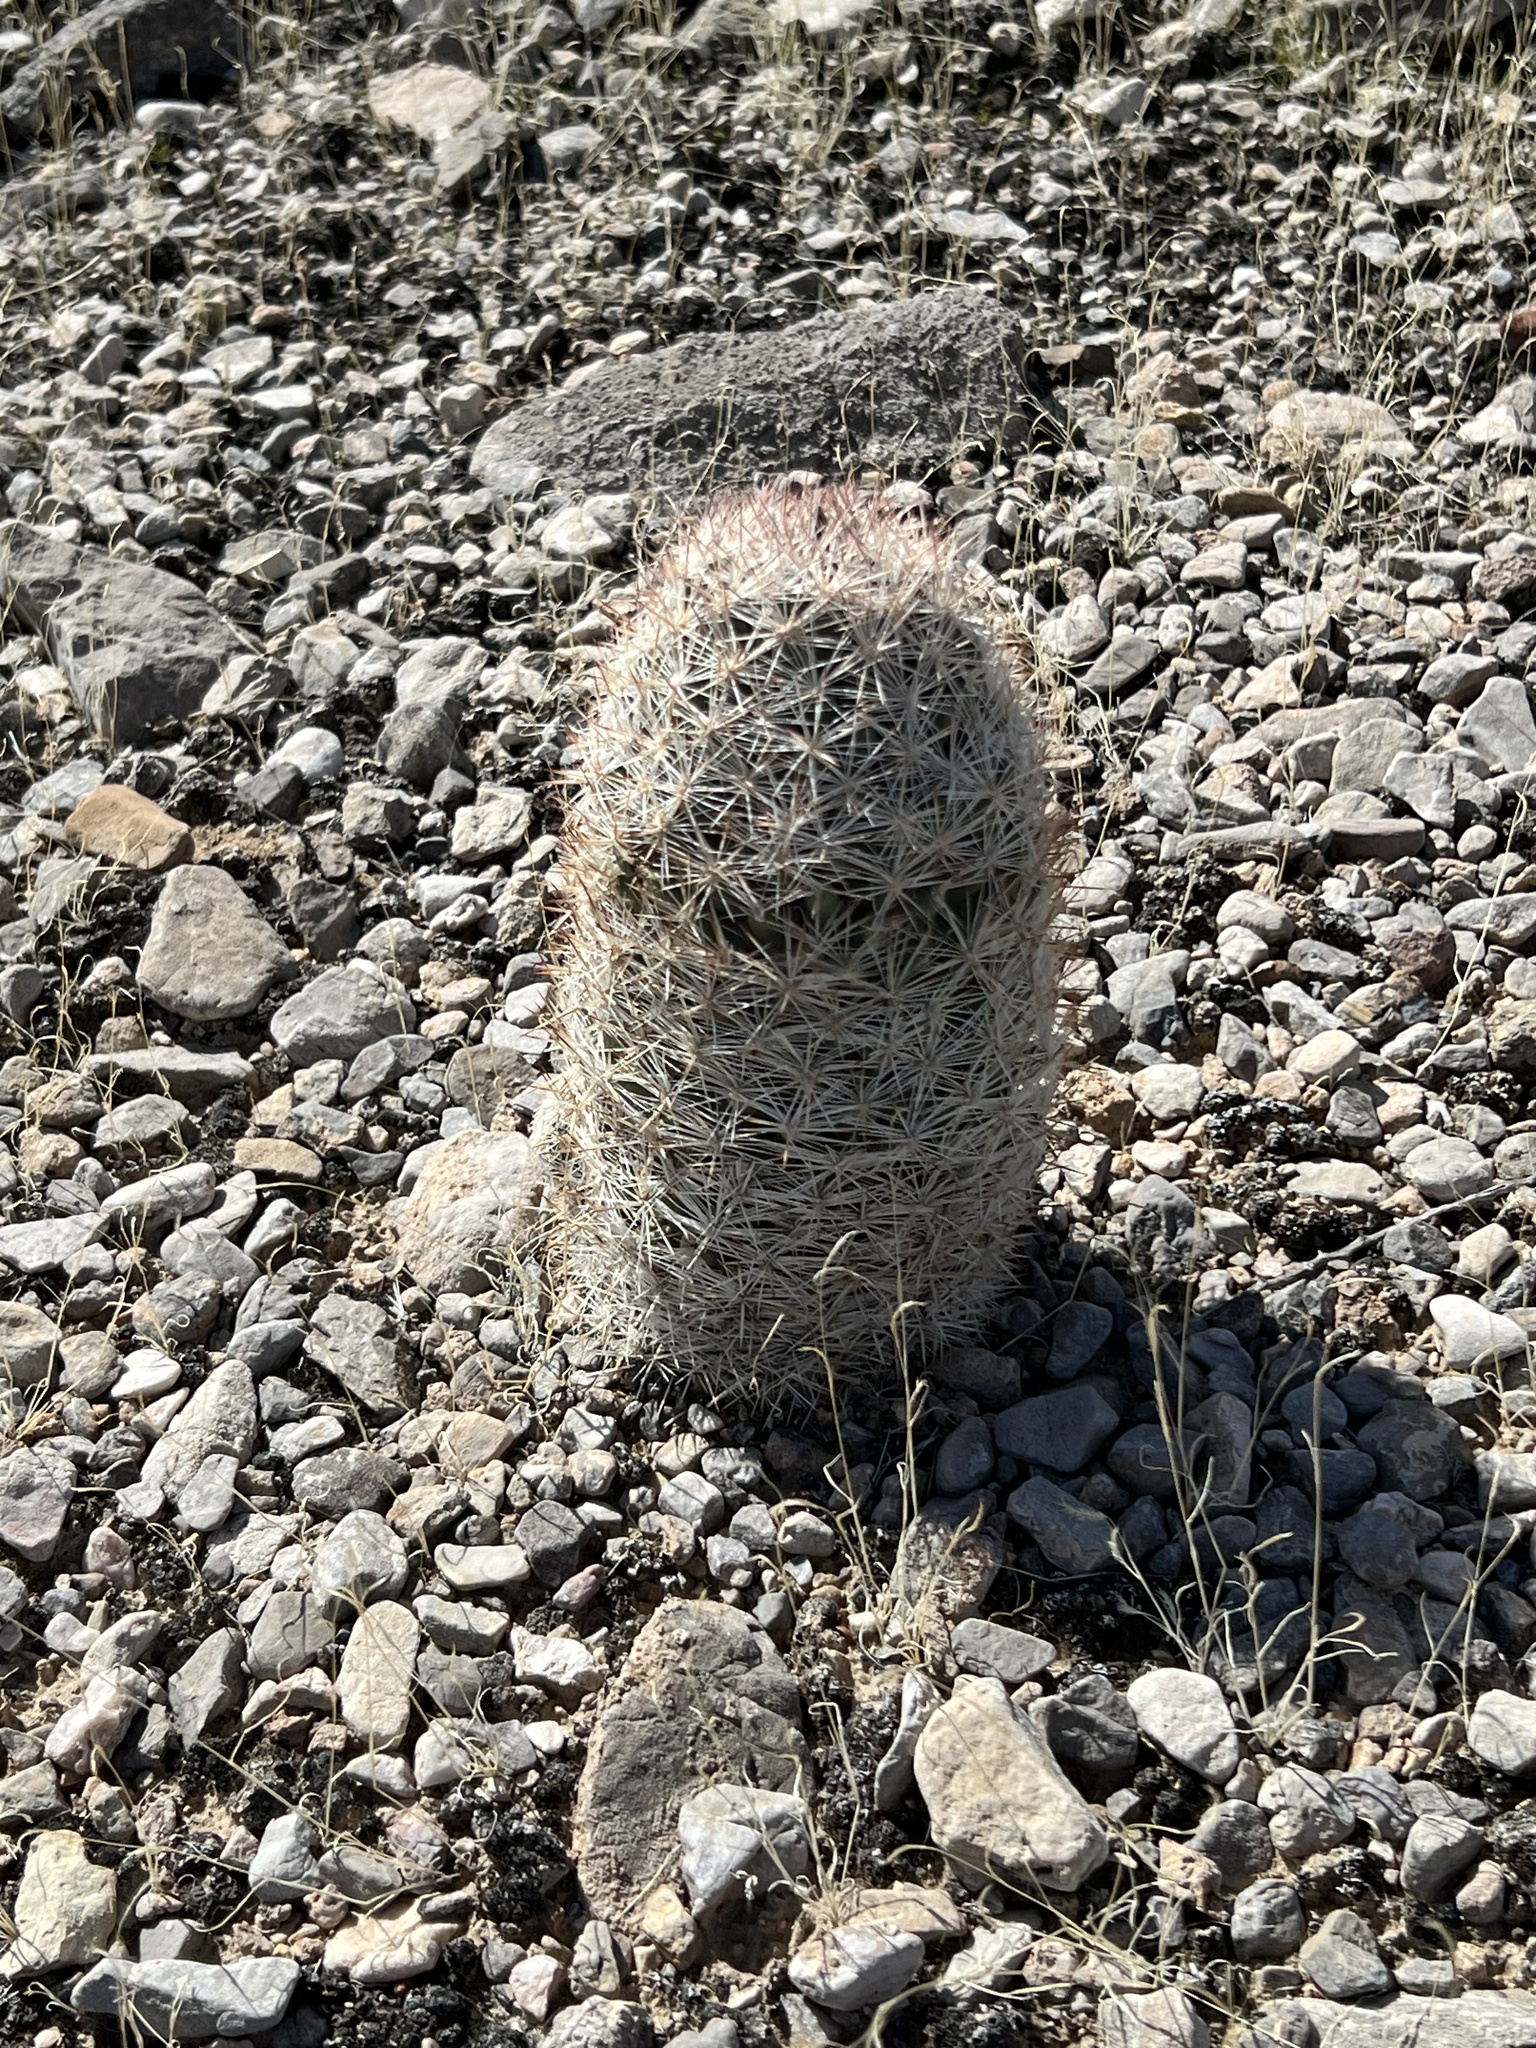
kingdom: Plantae
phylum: Tracheophyta
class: Magnoliopsida
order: Caryophyllales
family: Cactaceae
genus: Pelecyphora
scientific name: Pelecyphora dasyacantha
